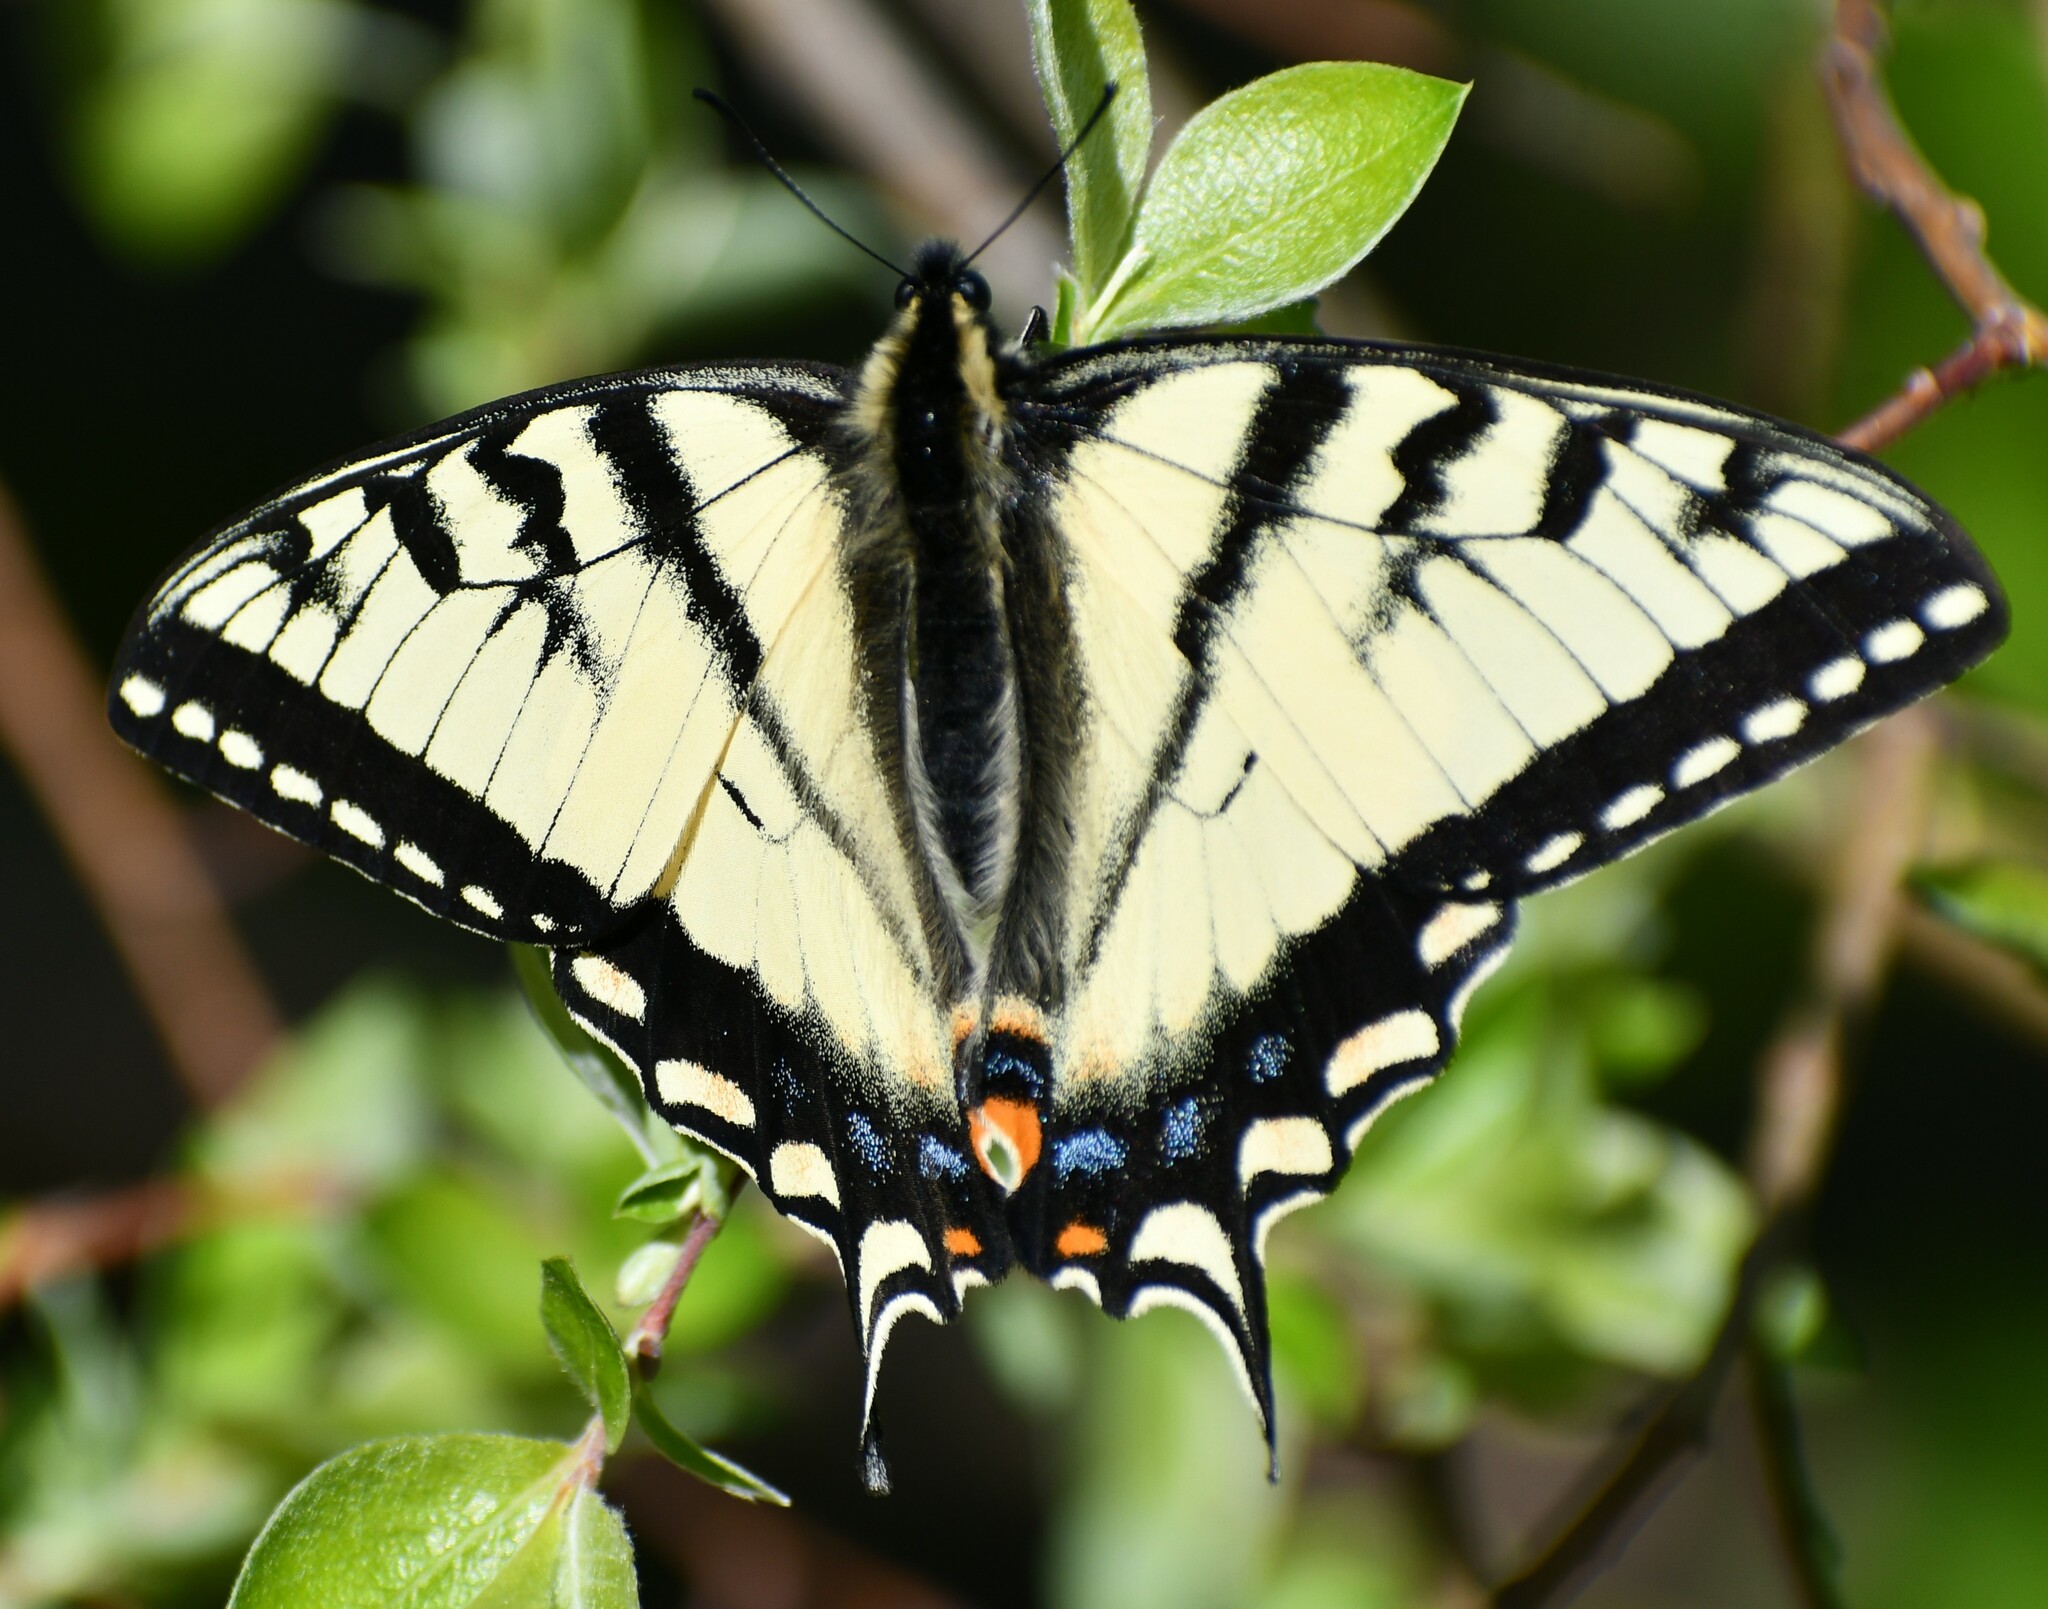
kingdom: Animalia
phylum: Arthropoda
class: Insecta
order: Lepidoptera
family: Papilionidae
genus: Papilio
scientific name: Papilio canadensis
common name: Canadian tiger swallowtail
